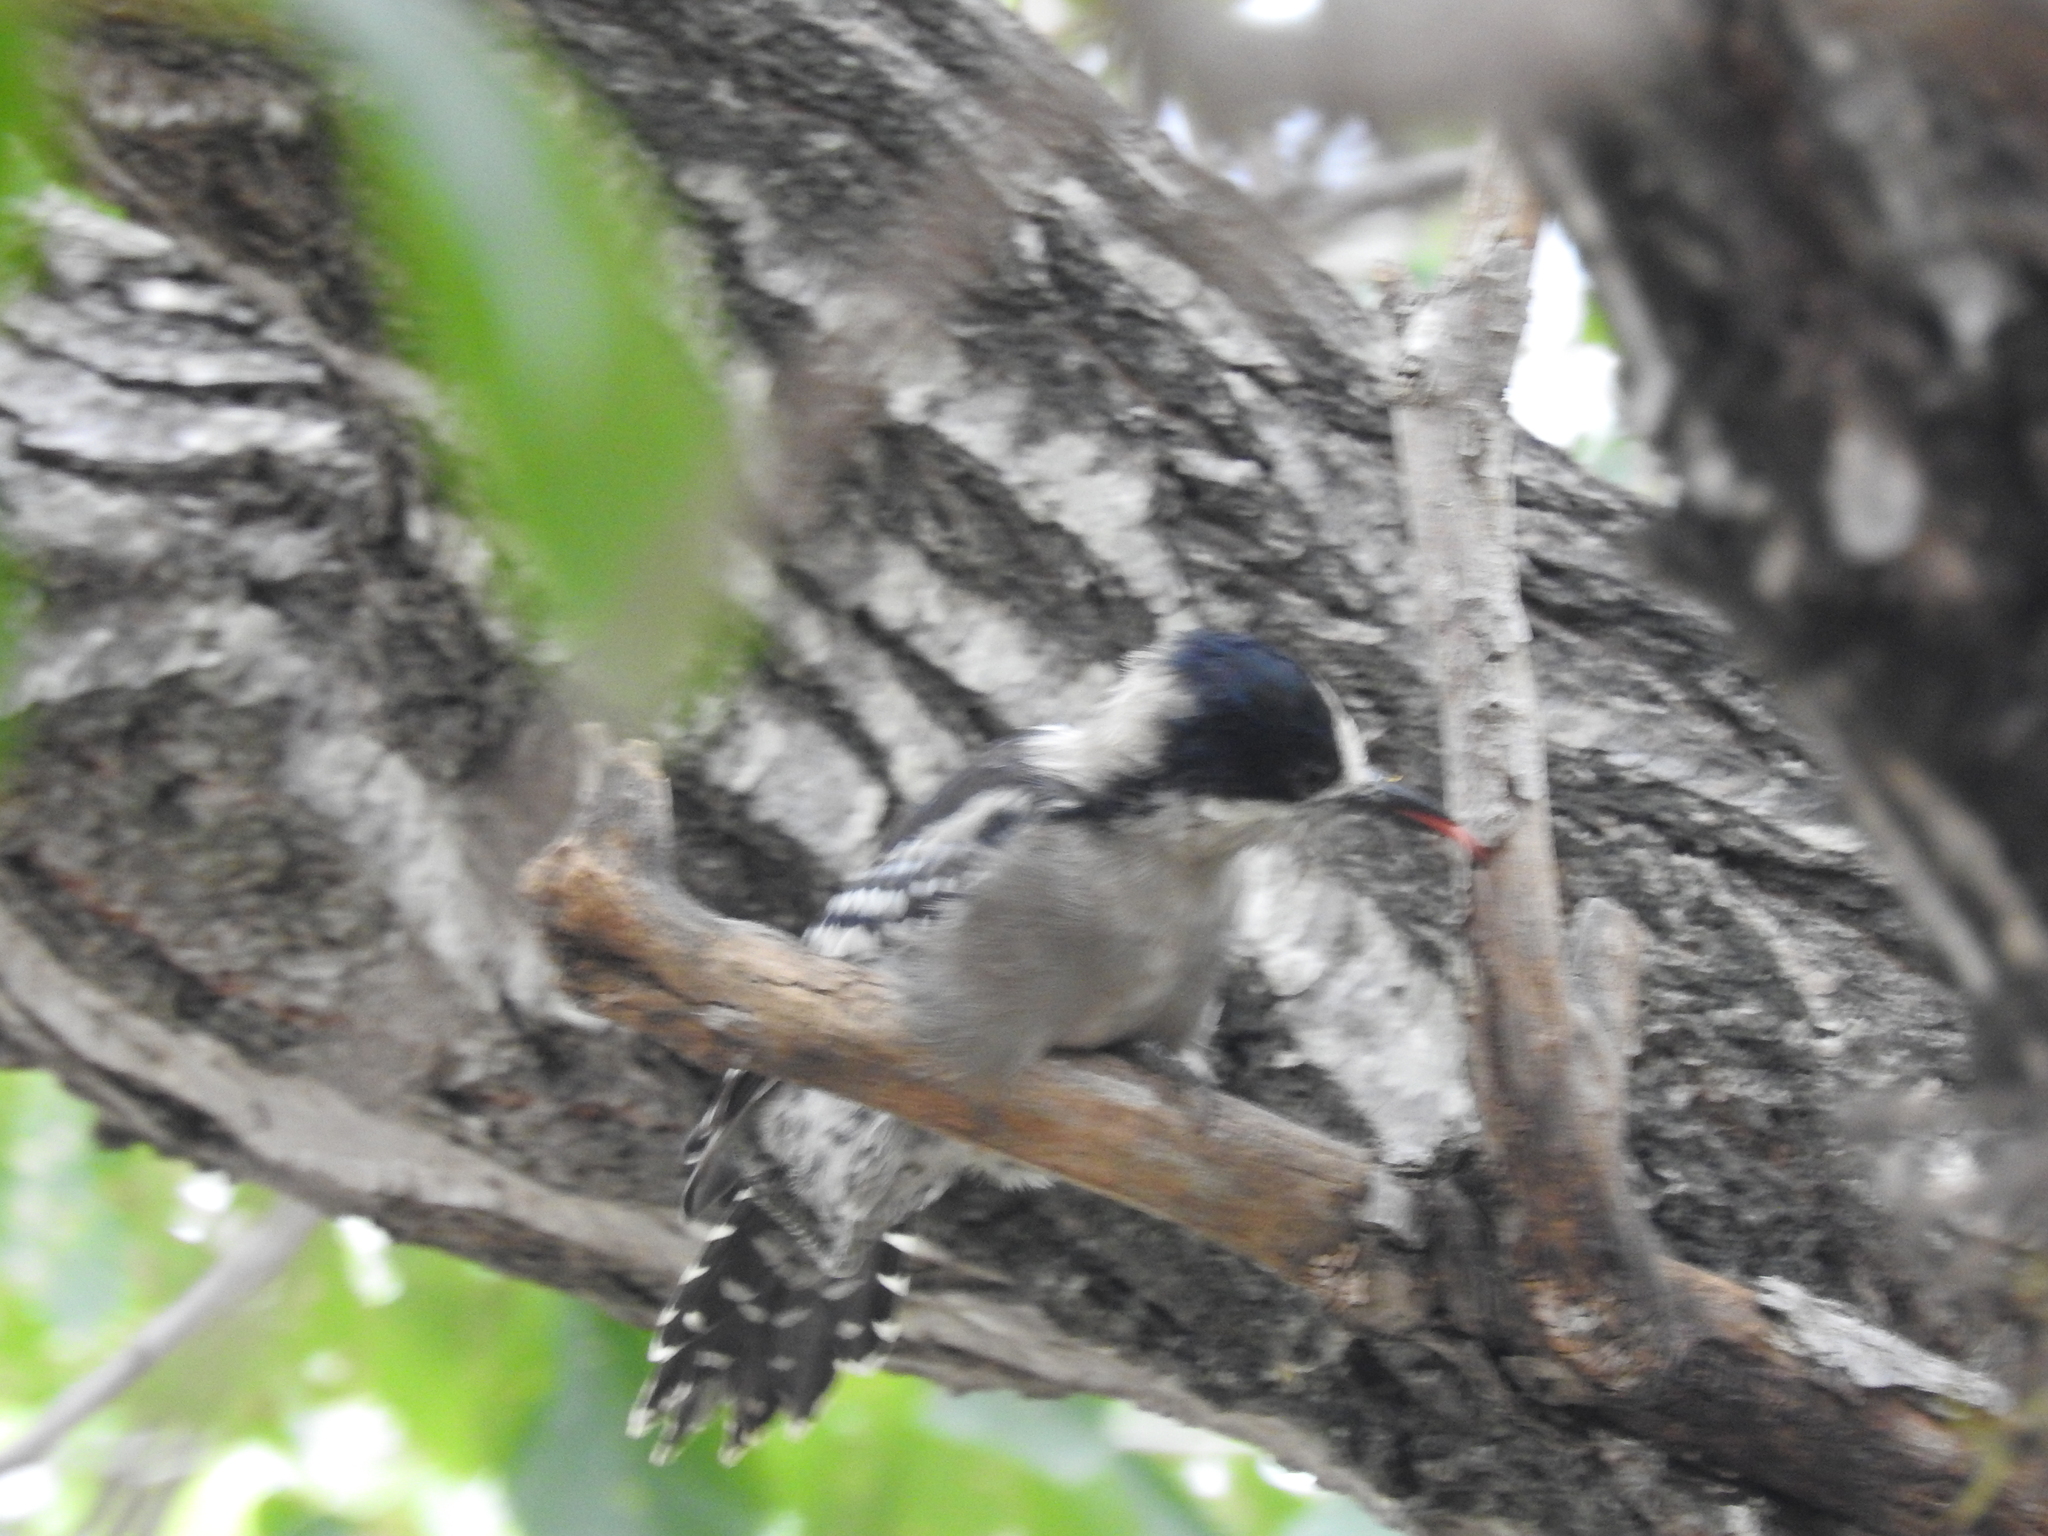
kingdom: Animalia
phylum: Chordata
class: Aves
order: Piciformes
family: Picidae
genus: Melanerpes
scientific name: Melanerpes cactorum
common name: White-fronted woodpecker
